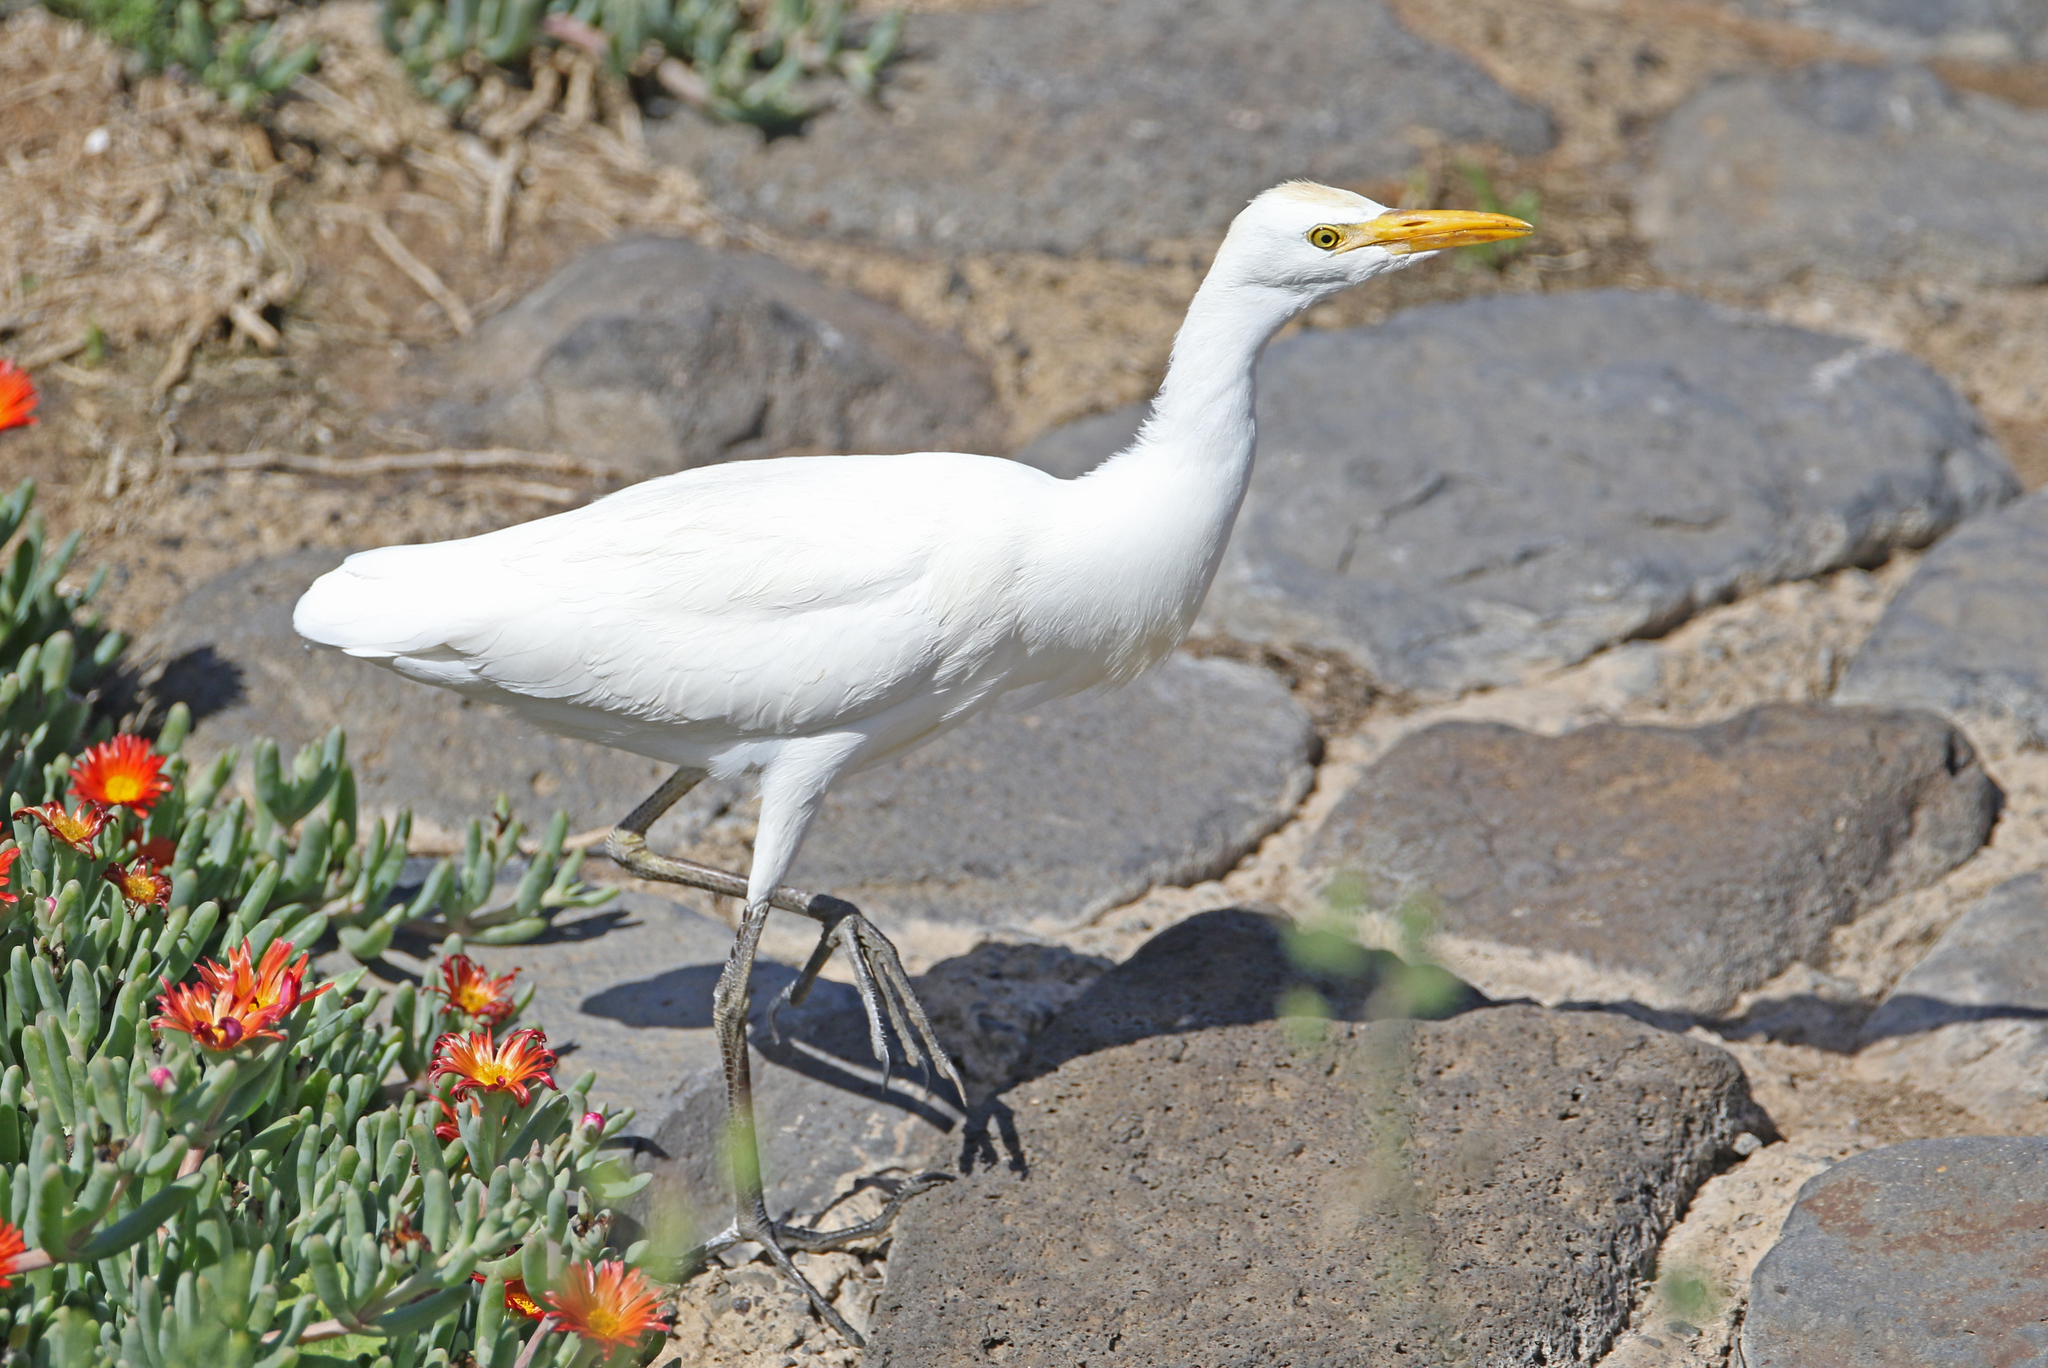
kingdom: Animalia
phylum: Chordata
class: Aves
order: Pelecaniformes
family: Ardeidae
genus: Bubulcus
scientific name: Bubulcus ibis
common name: Cattle egret
